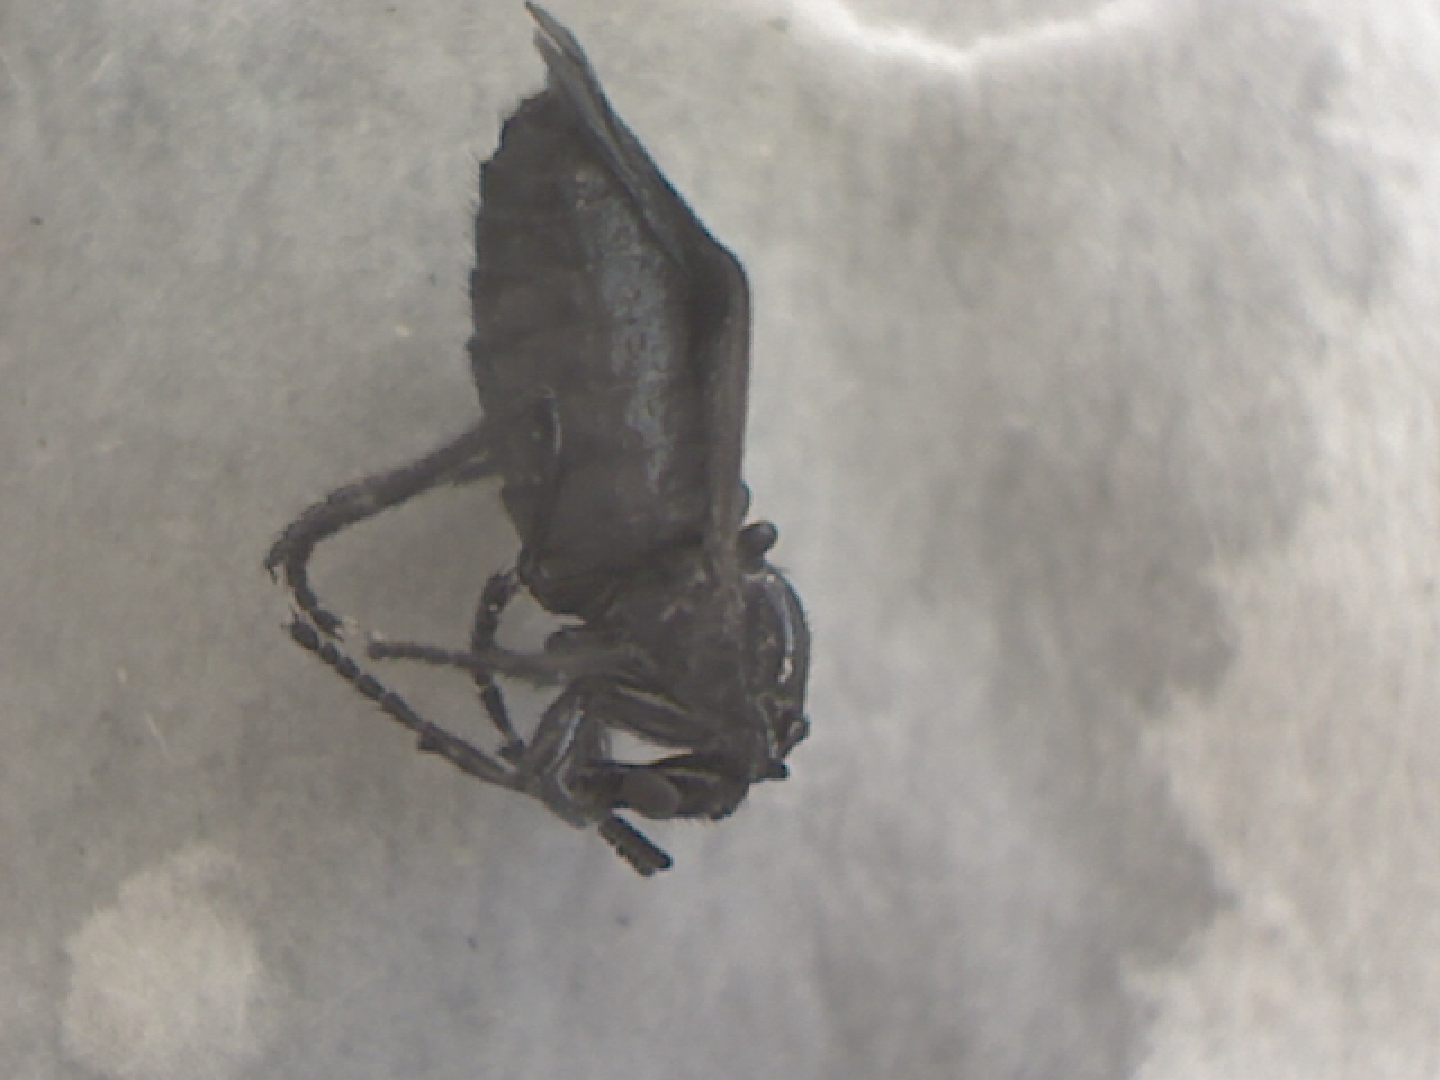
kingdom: Animalia
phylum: Arthropoda
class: Insecta
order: Diptera
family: Bibionidae
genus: Dilophus
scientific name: Dilophus orbatus
